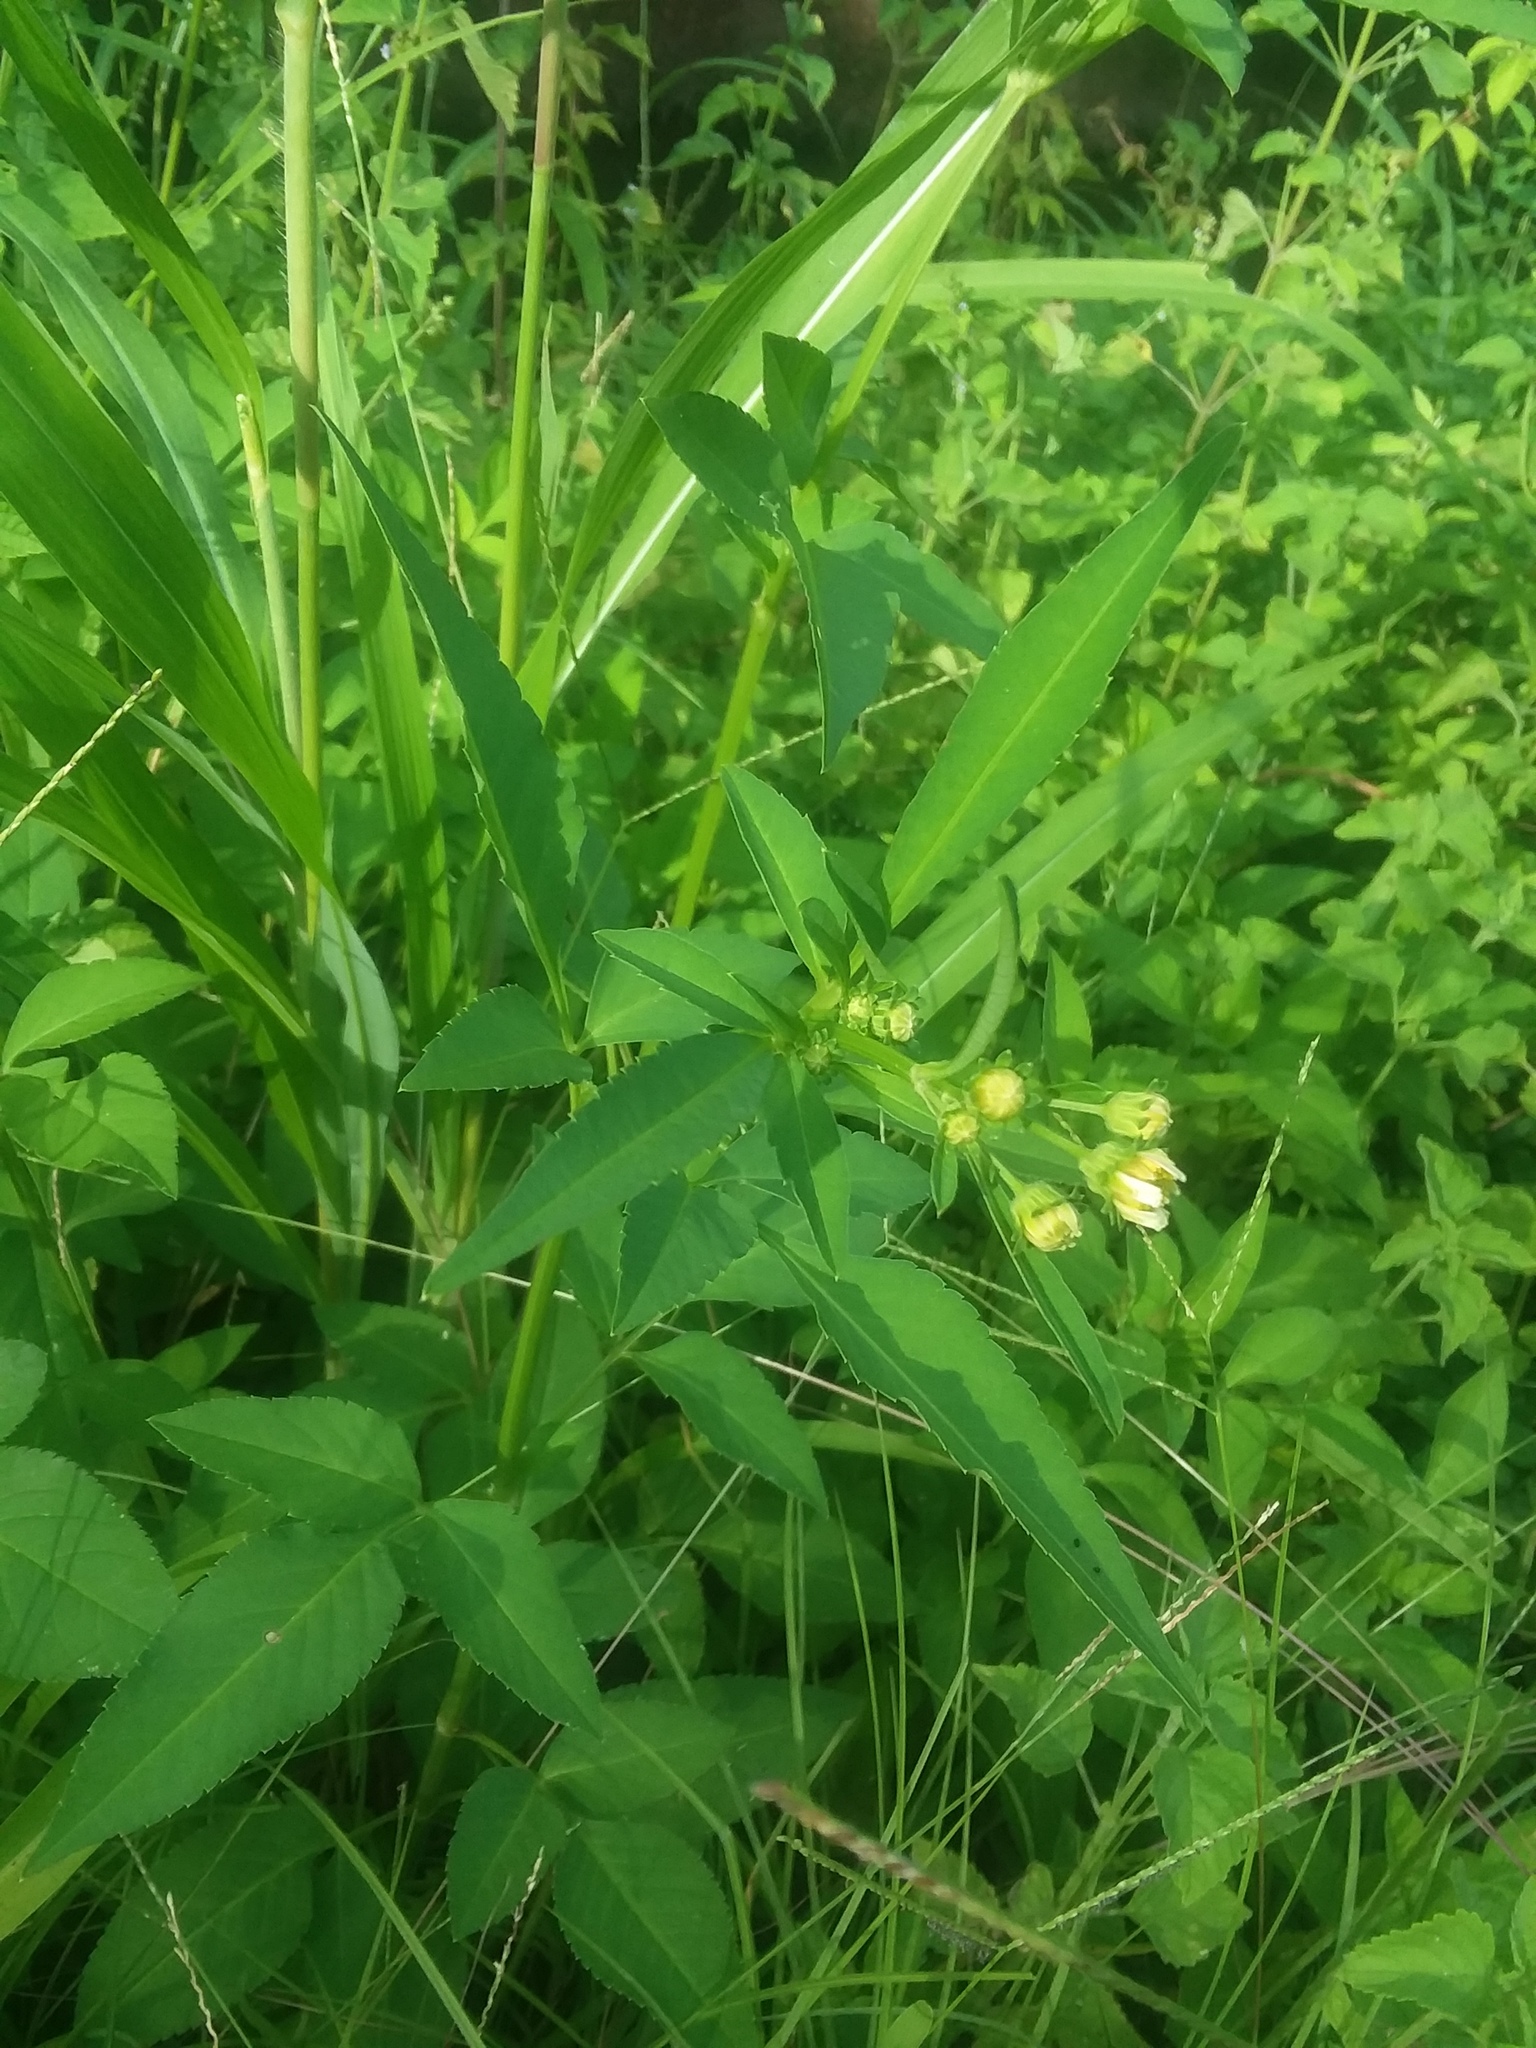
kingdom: Plantae
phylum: Tracheophyta
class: Magnoliopsida
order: Asterales
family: Asteraceae
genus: Bidens
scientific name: Bidens alba
